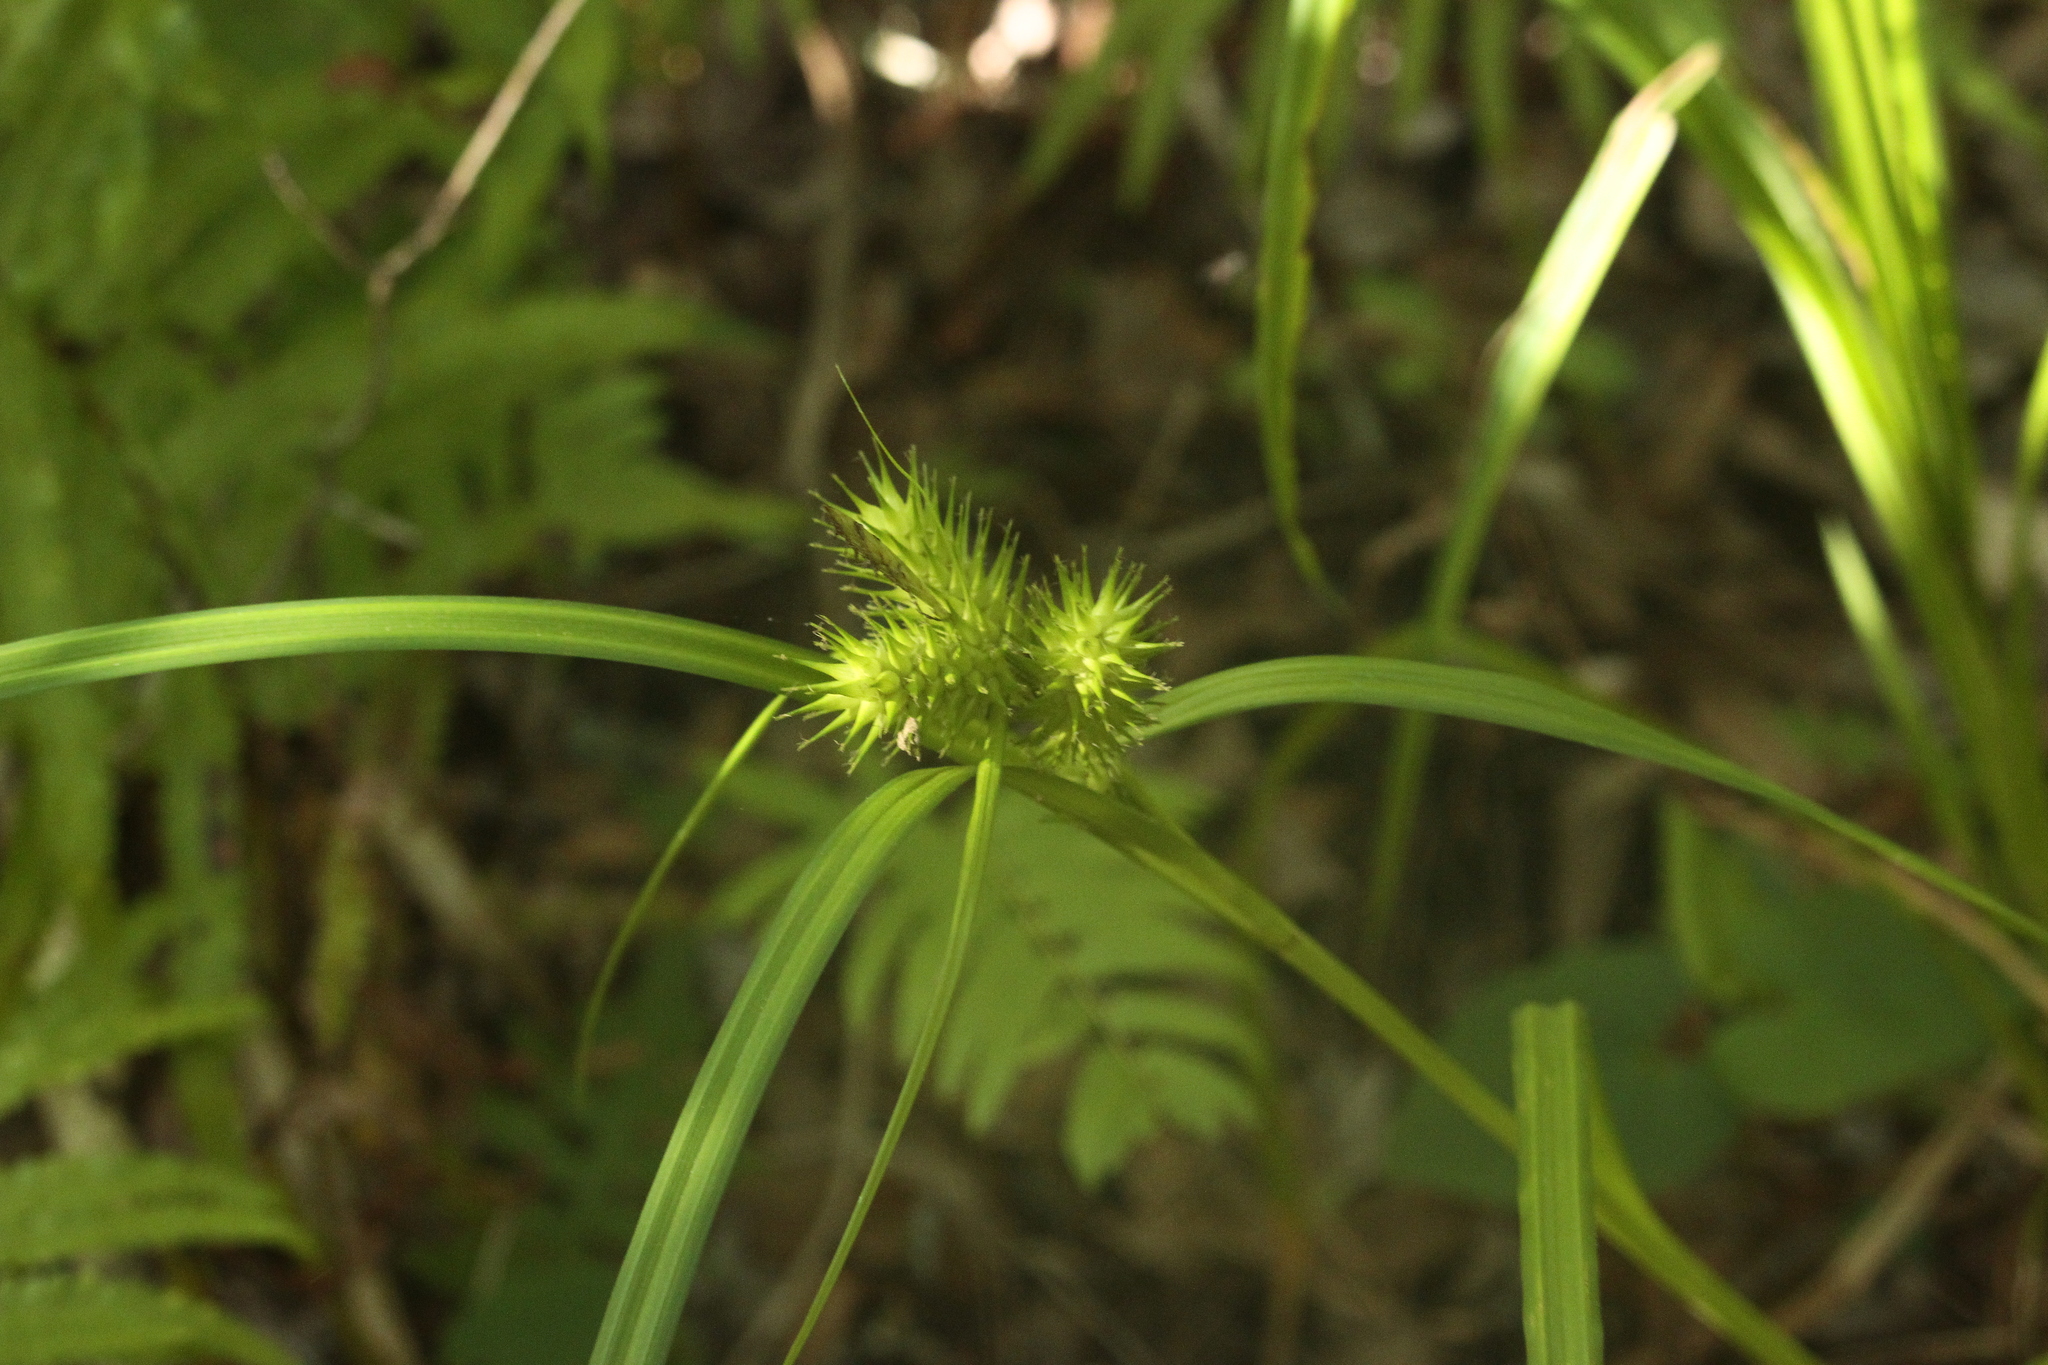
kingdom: Plantae
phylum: Tracheophyta
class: Liliopsida
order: Poales
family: Cyperaceae
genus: Carex
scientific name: Carex lupuliformis
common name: False hop sedge
